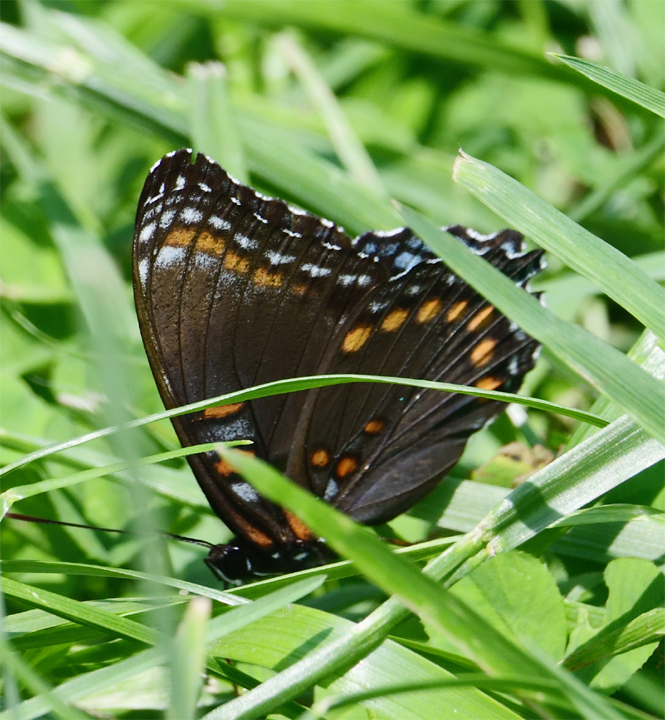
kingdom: Animalia
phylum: Arthropoda
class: Insecta
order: Lepidoptera
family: Nymphalidae
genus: Limenitis
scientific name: Limenitis arthemis
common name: Red-spotted admiral
